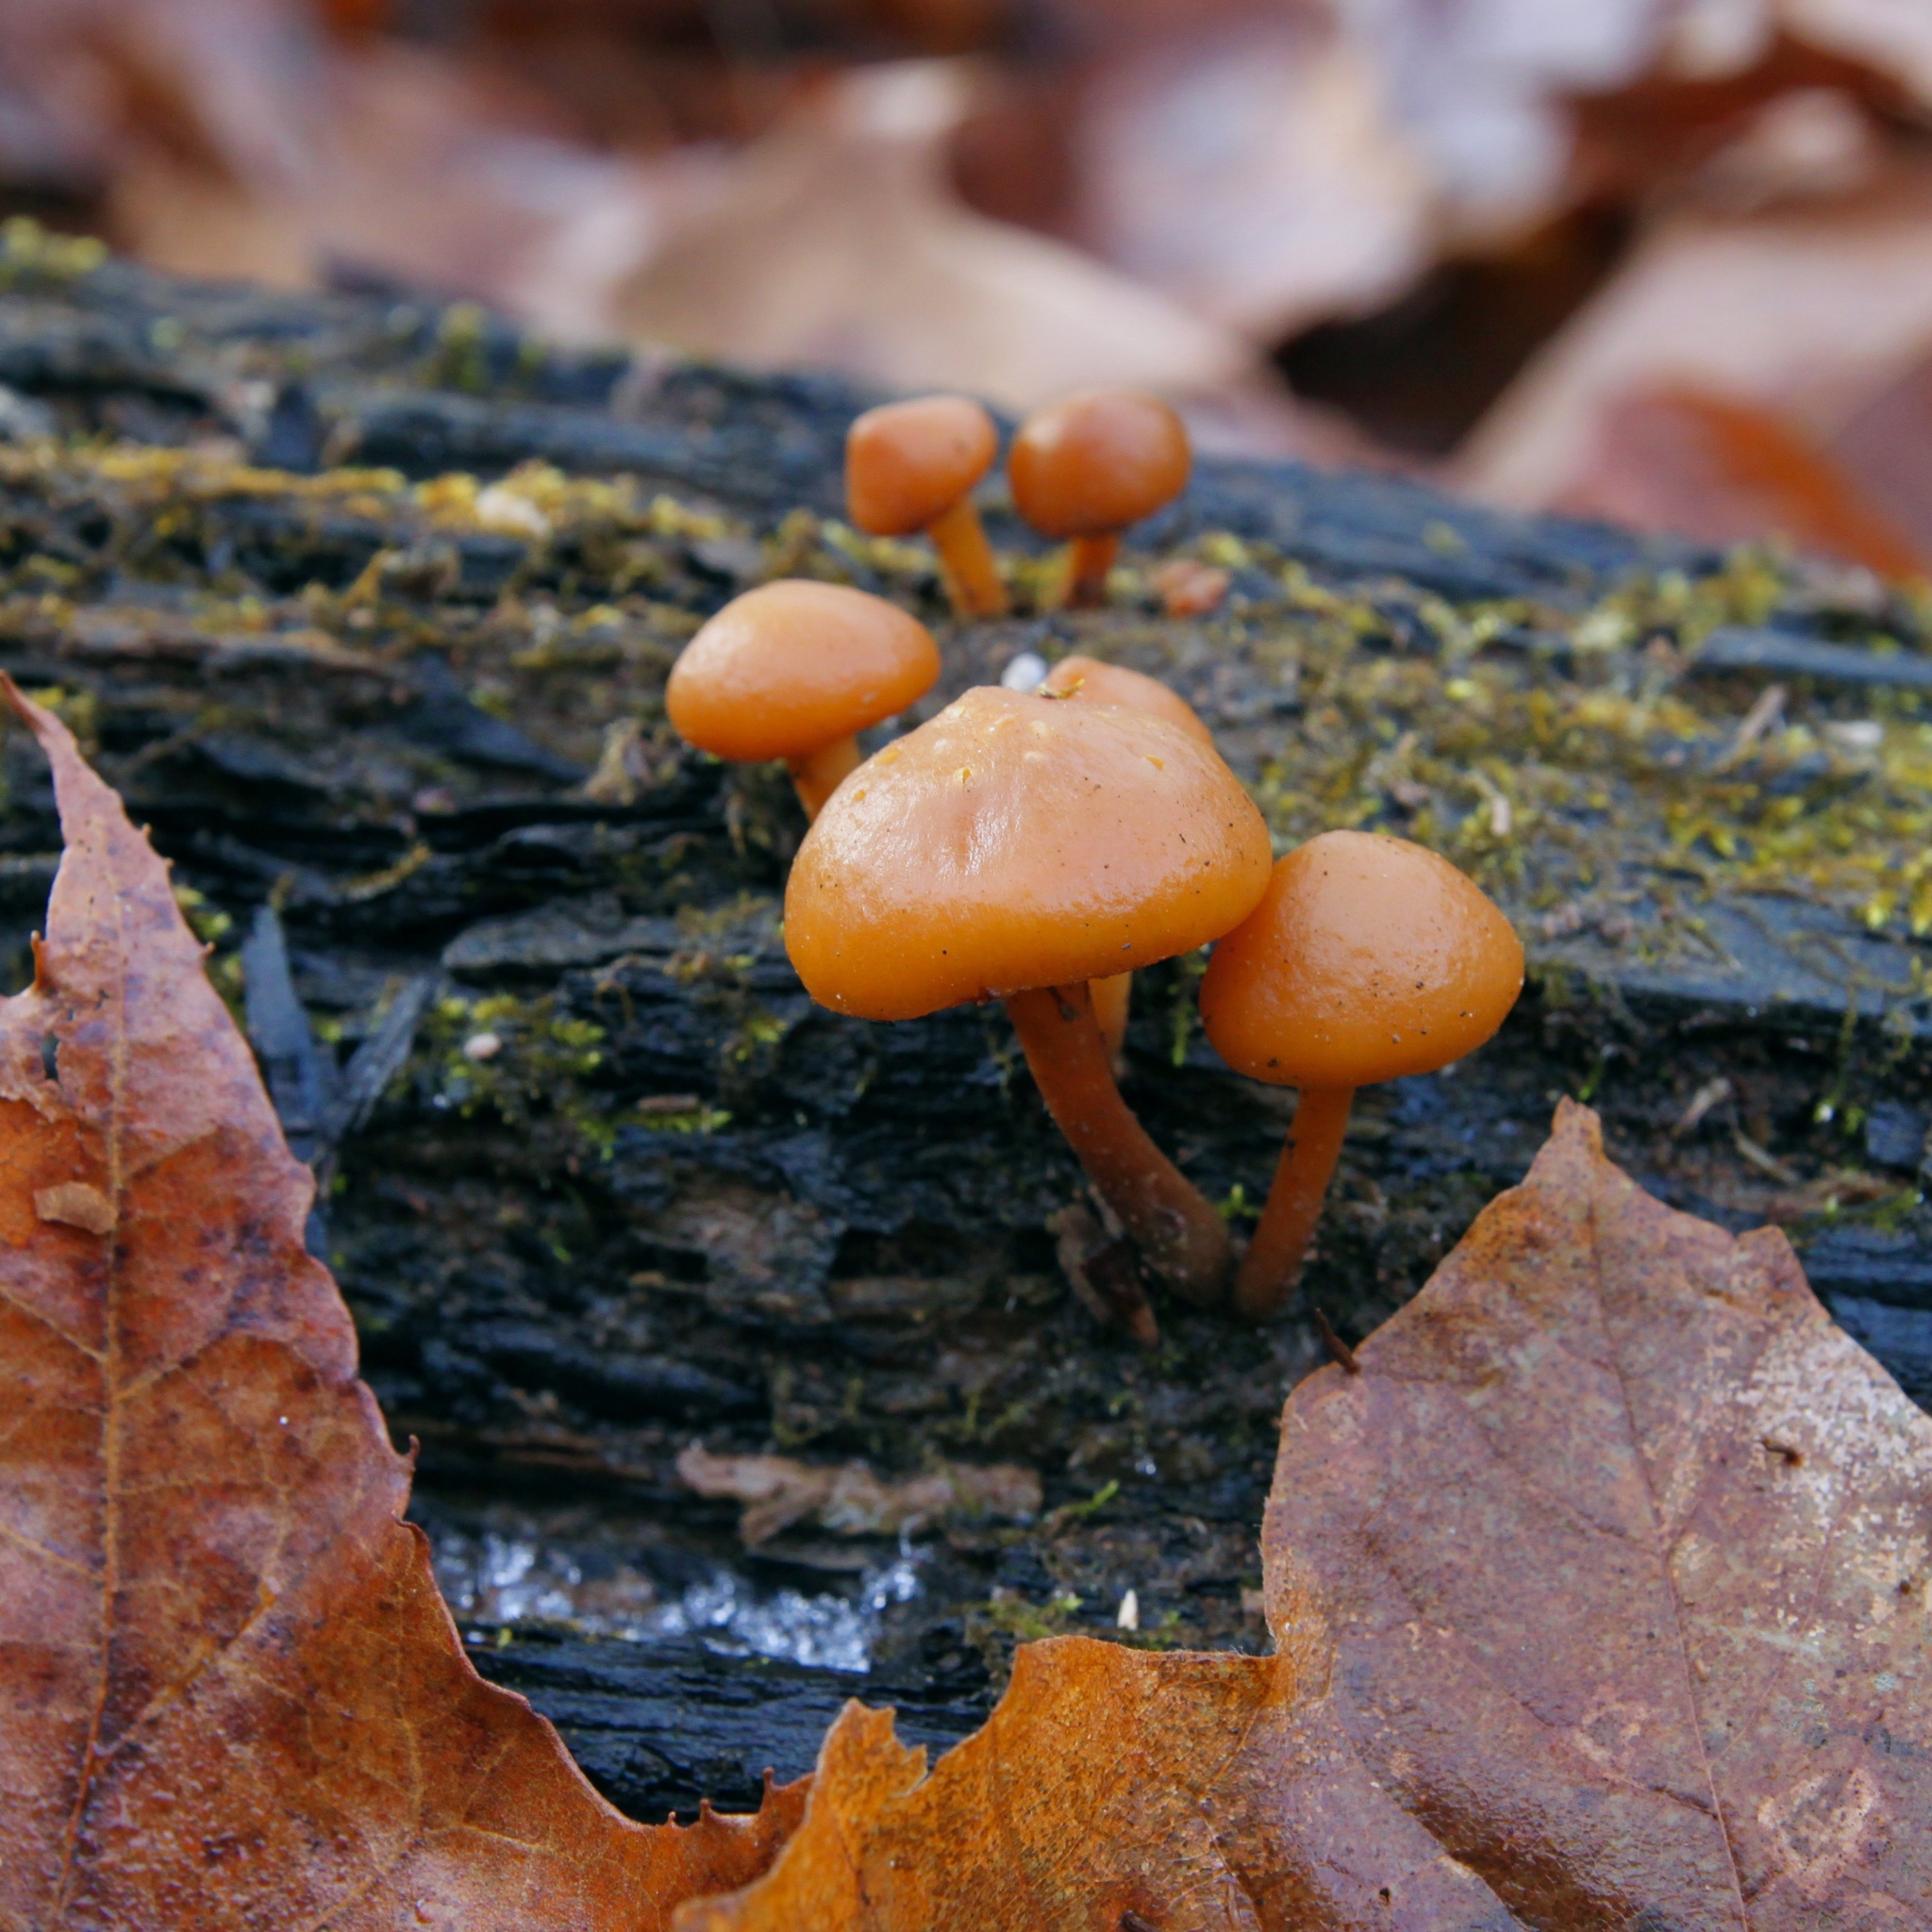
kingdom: Fungi
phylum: Basidiomycota
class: Agaricomycetes
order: Agaricales
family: Hymenogastraceae
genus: Galerina
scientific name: Galerina marginata
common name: Funeral bell
